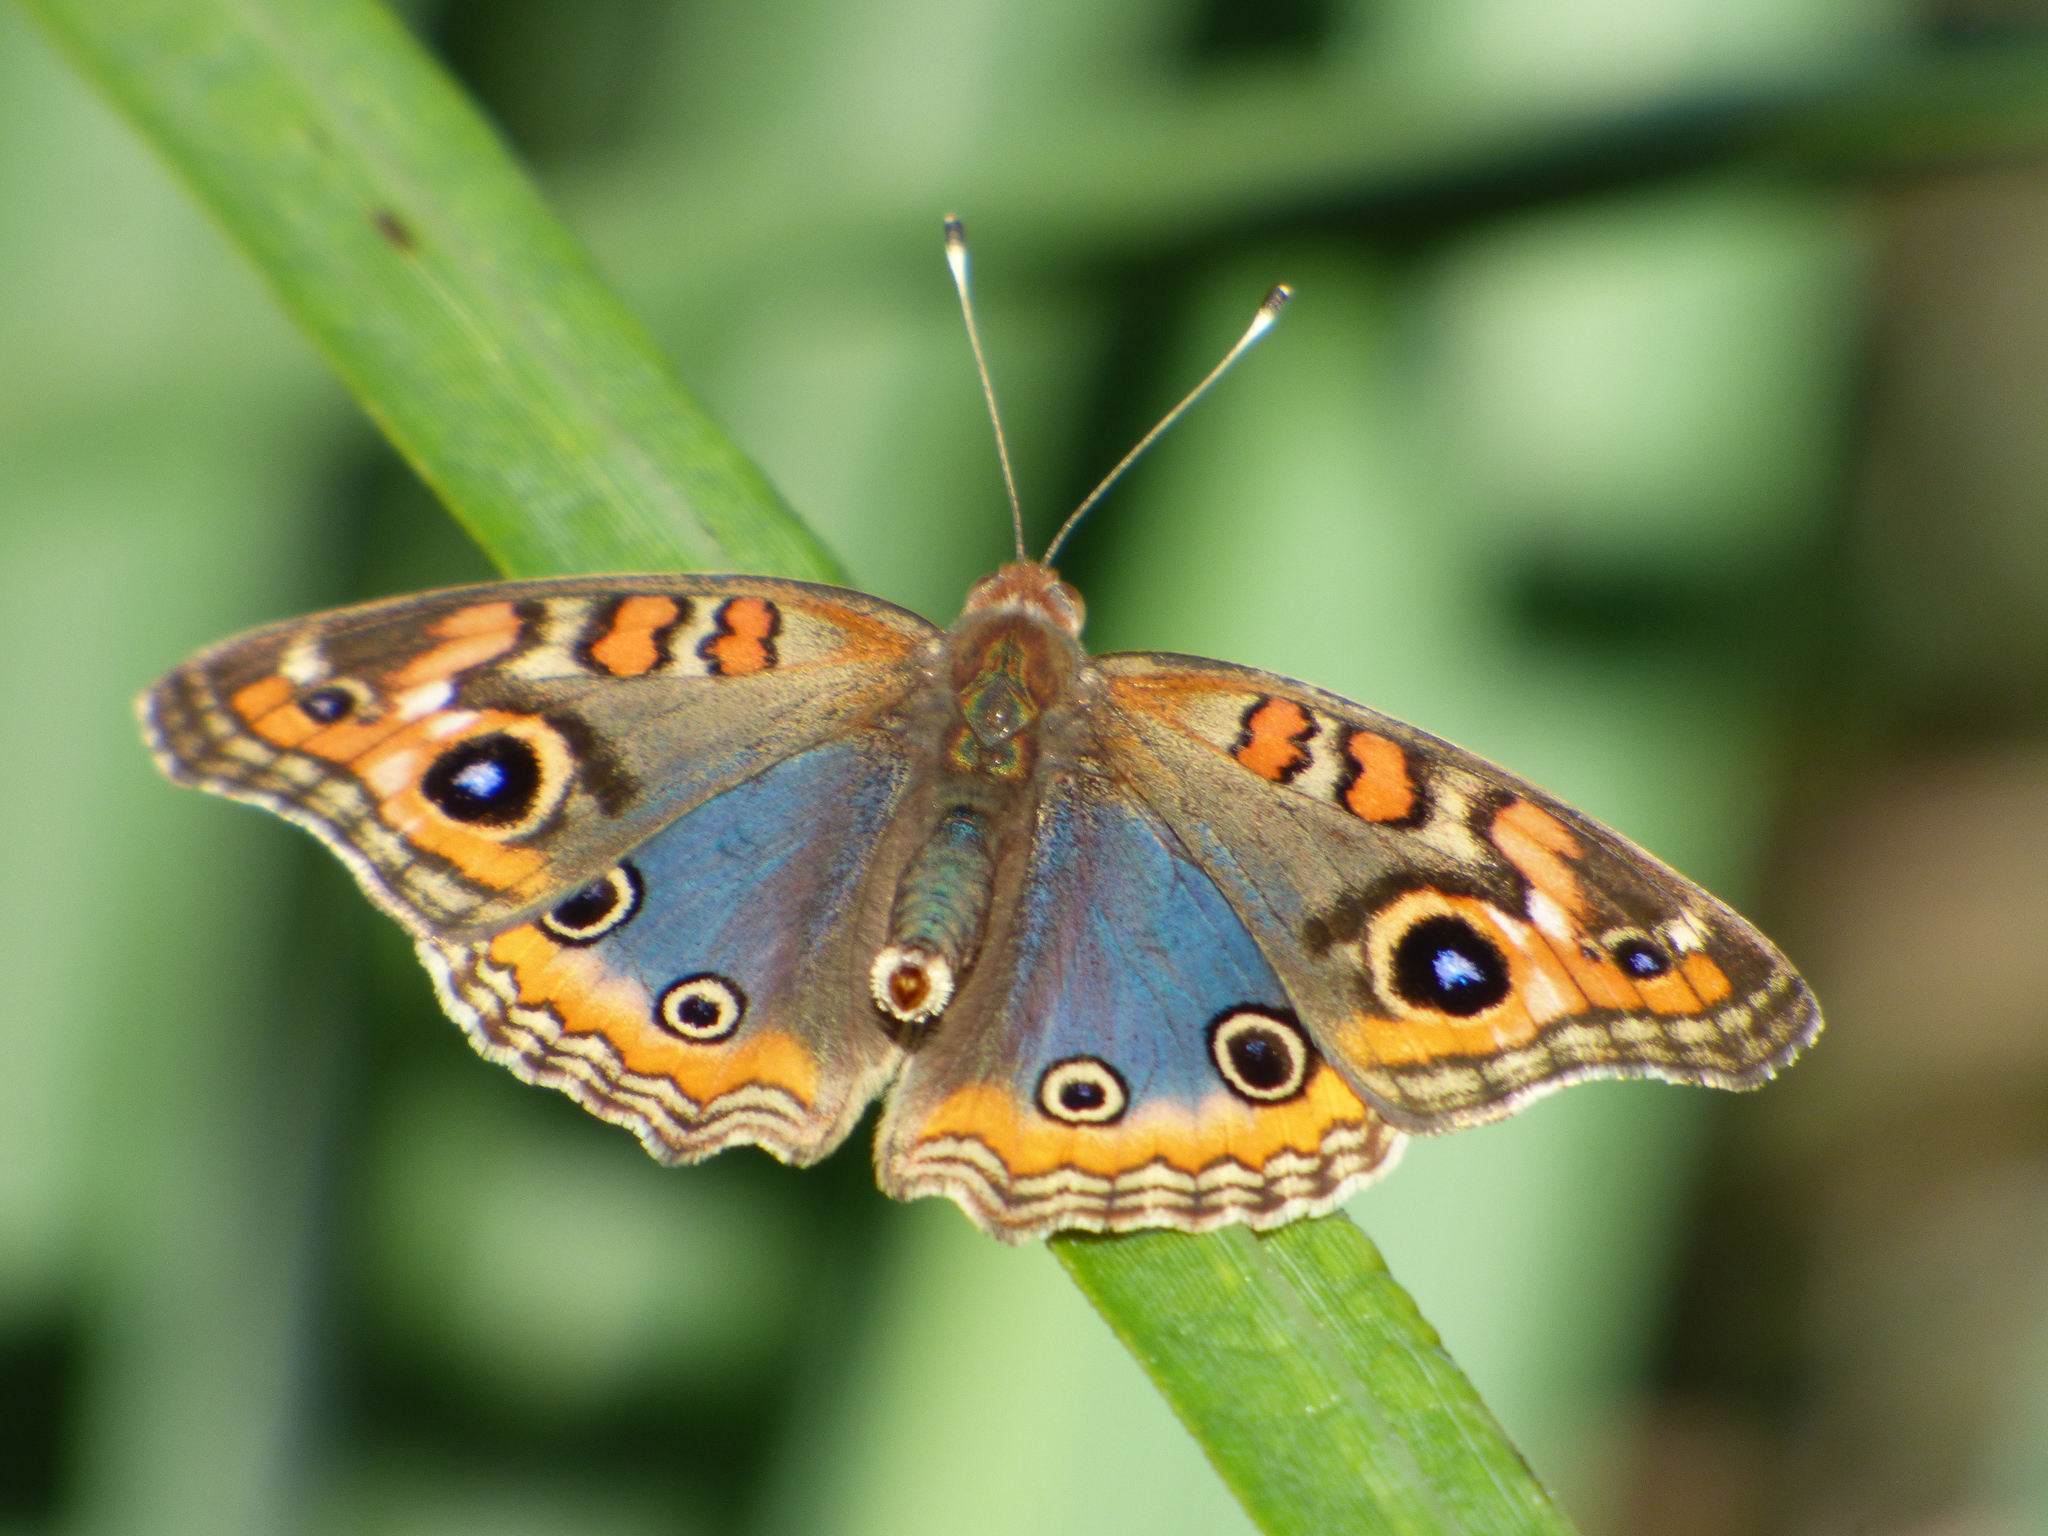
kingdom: Animalia
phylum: Arthropoda
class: Insecta
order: Lepidoptera
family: Nymphalidae
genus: Junonia
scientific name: Junonia lavinia
